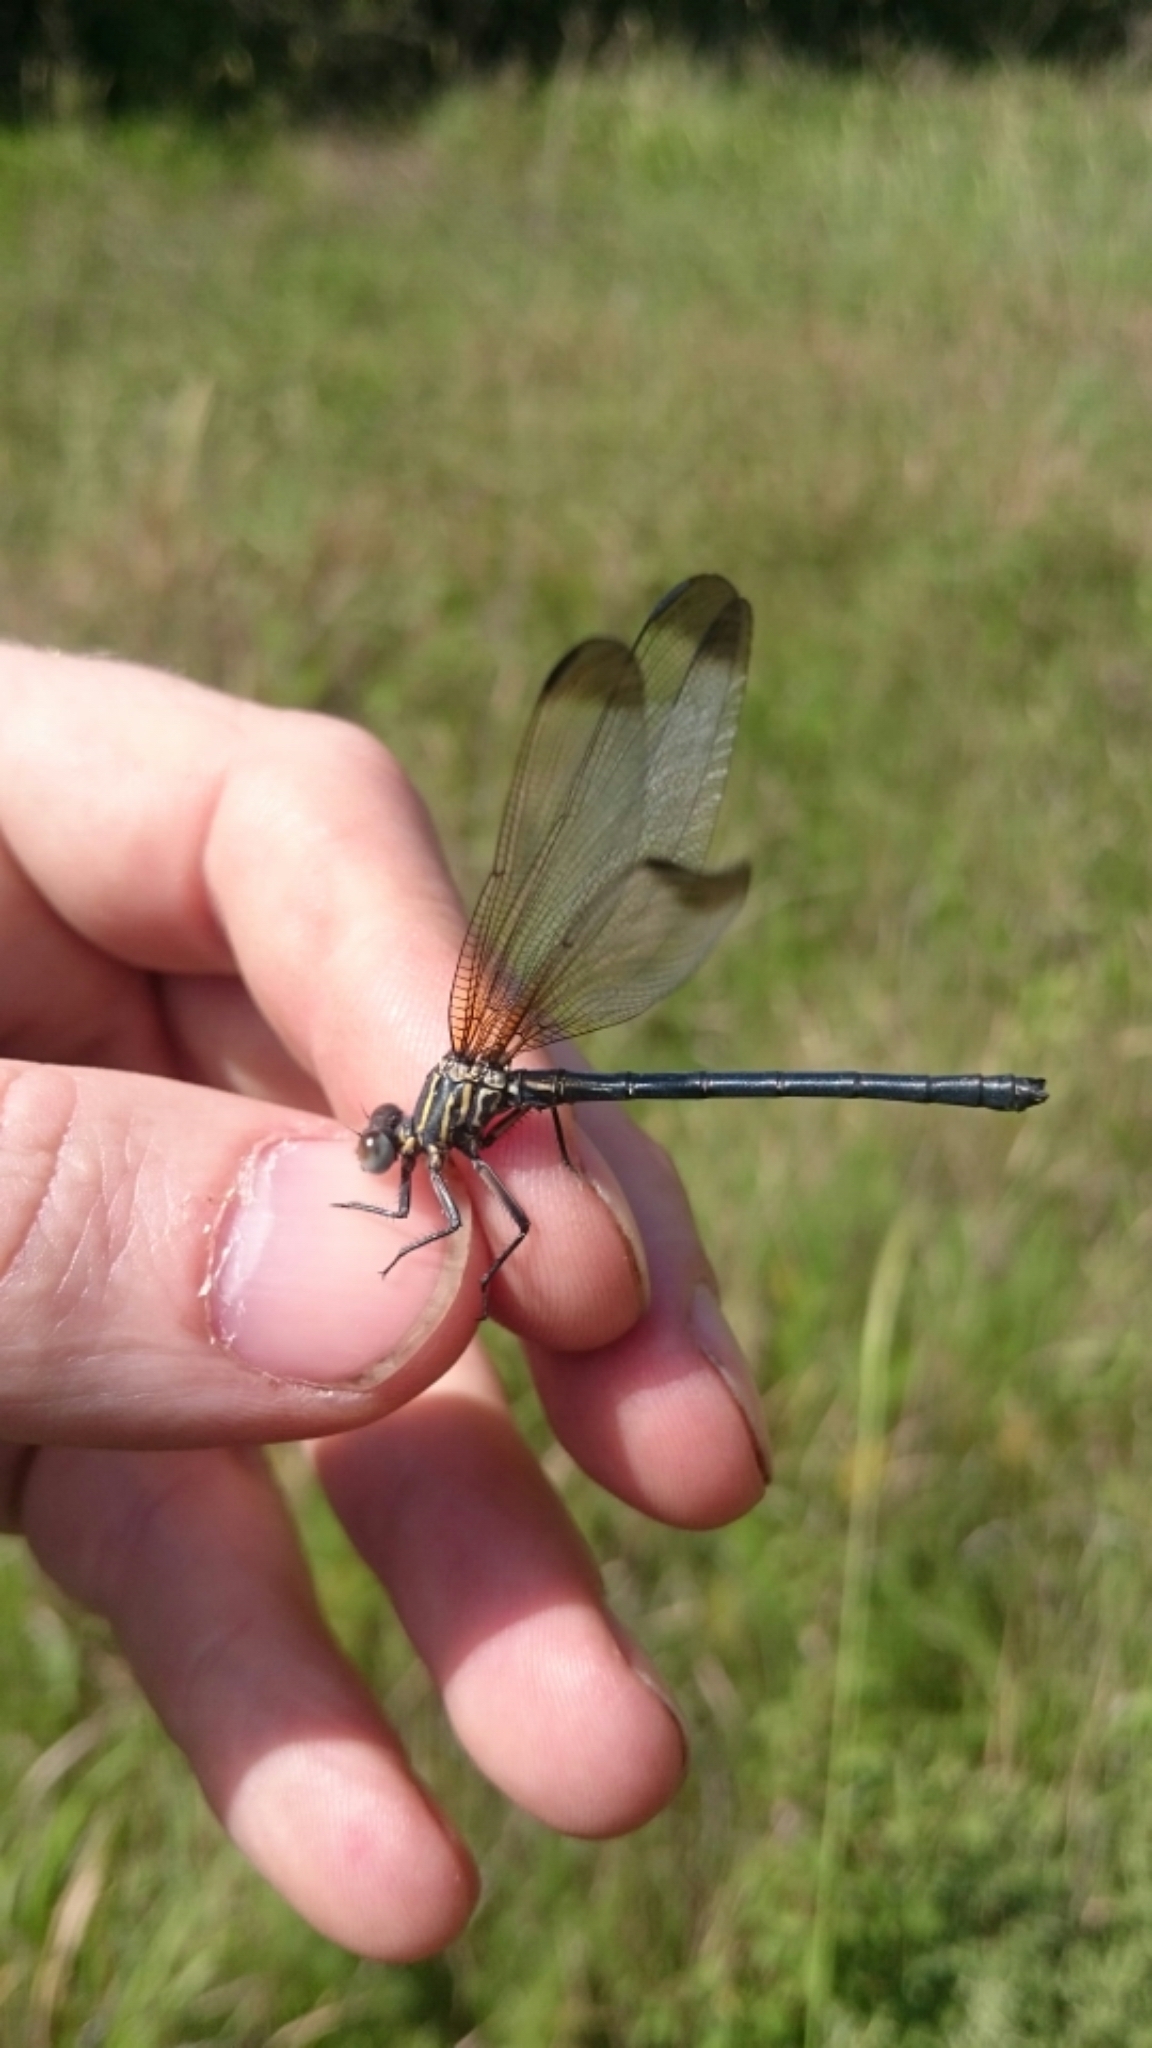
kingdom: Animalia
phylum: Arthropoda
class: Insecta
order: Odonata
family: Euphaeidae
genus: Epallage
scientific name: Epallage fatime
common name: Odalisque
